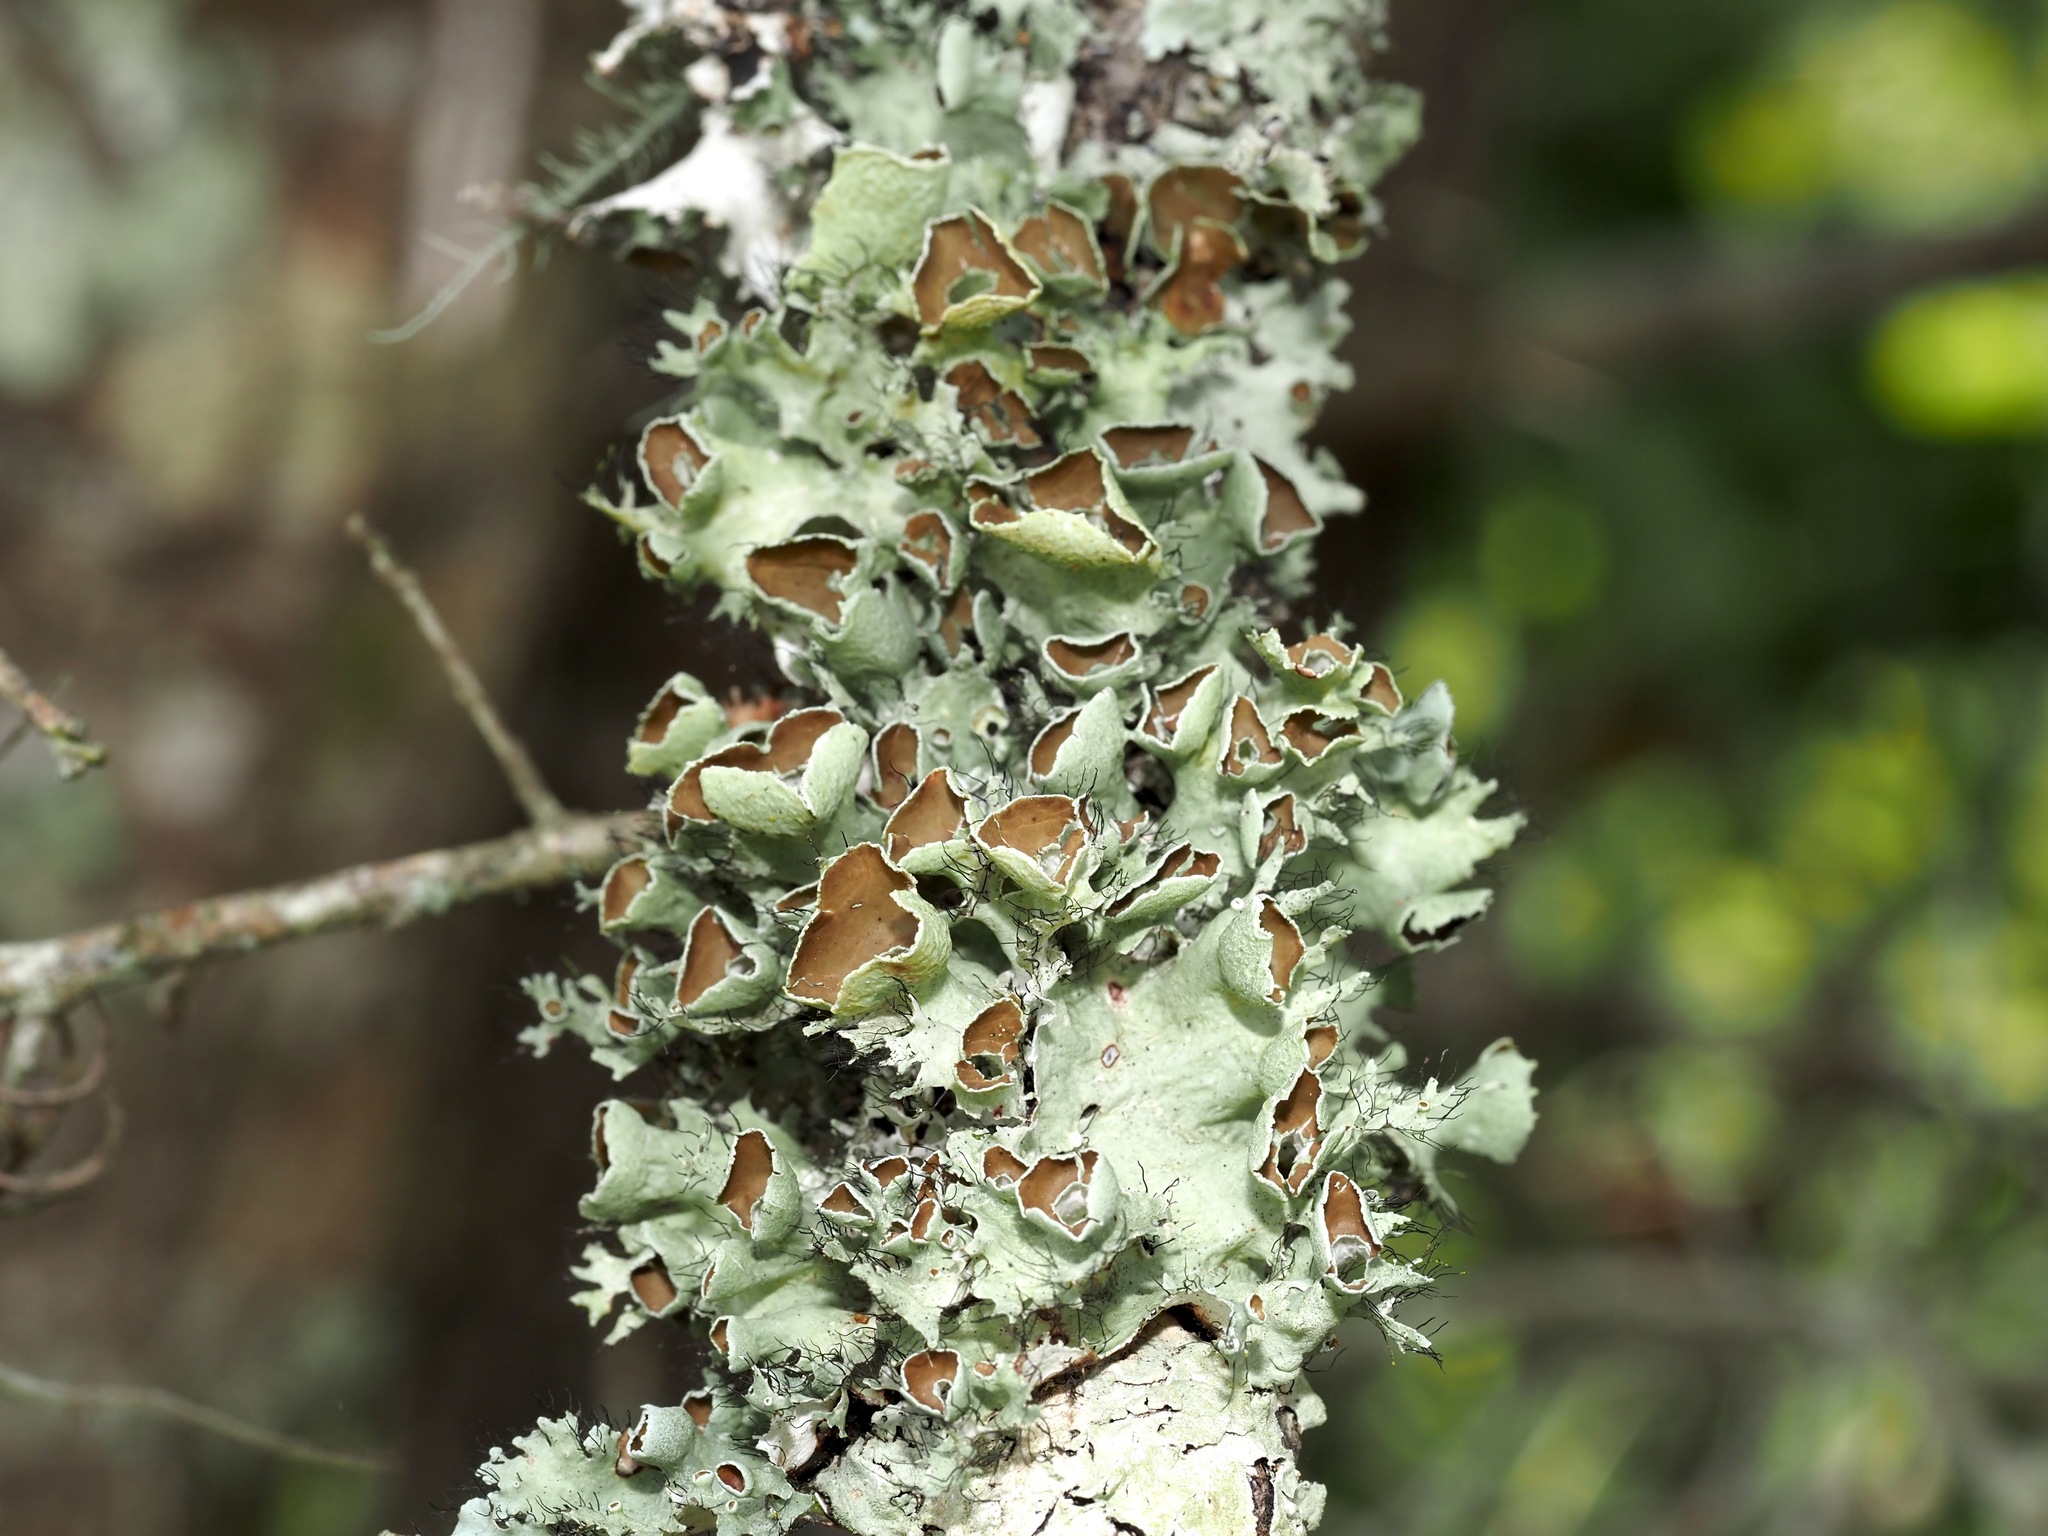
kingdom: Fungi
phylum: Ascomycota
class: Lecanoromycetes
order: Lecanorales
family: Parmeliaceae
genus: Parmotrema
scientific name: Parmotrema perforatum
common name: Perforated ruffle lichen
